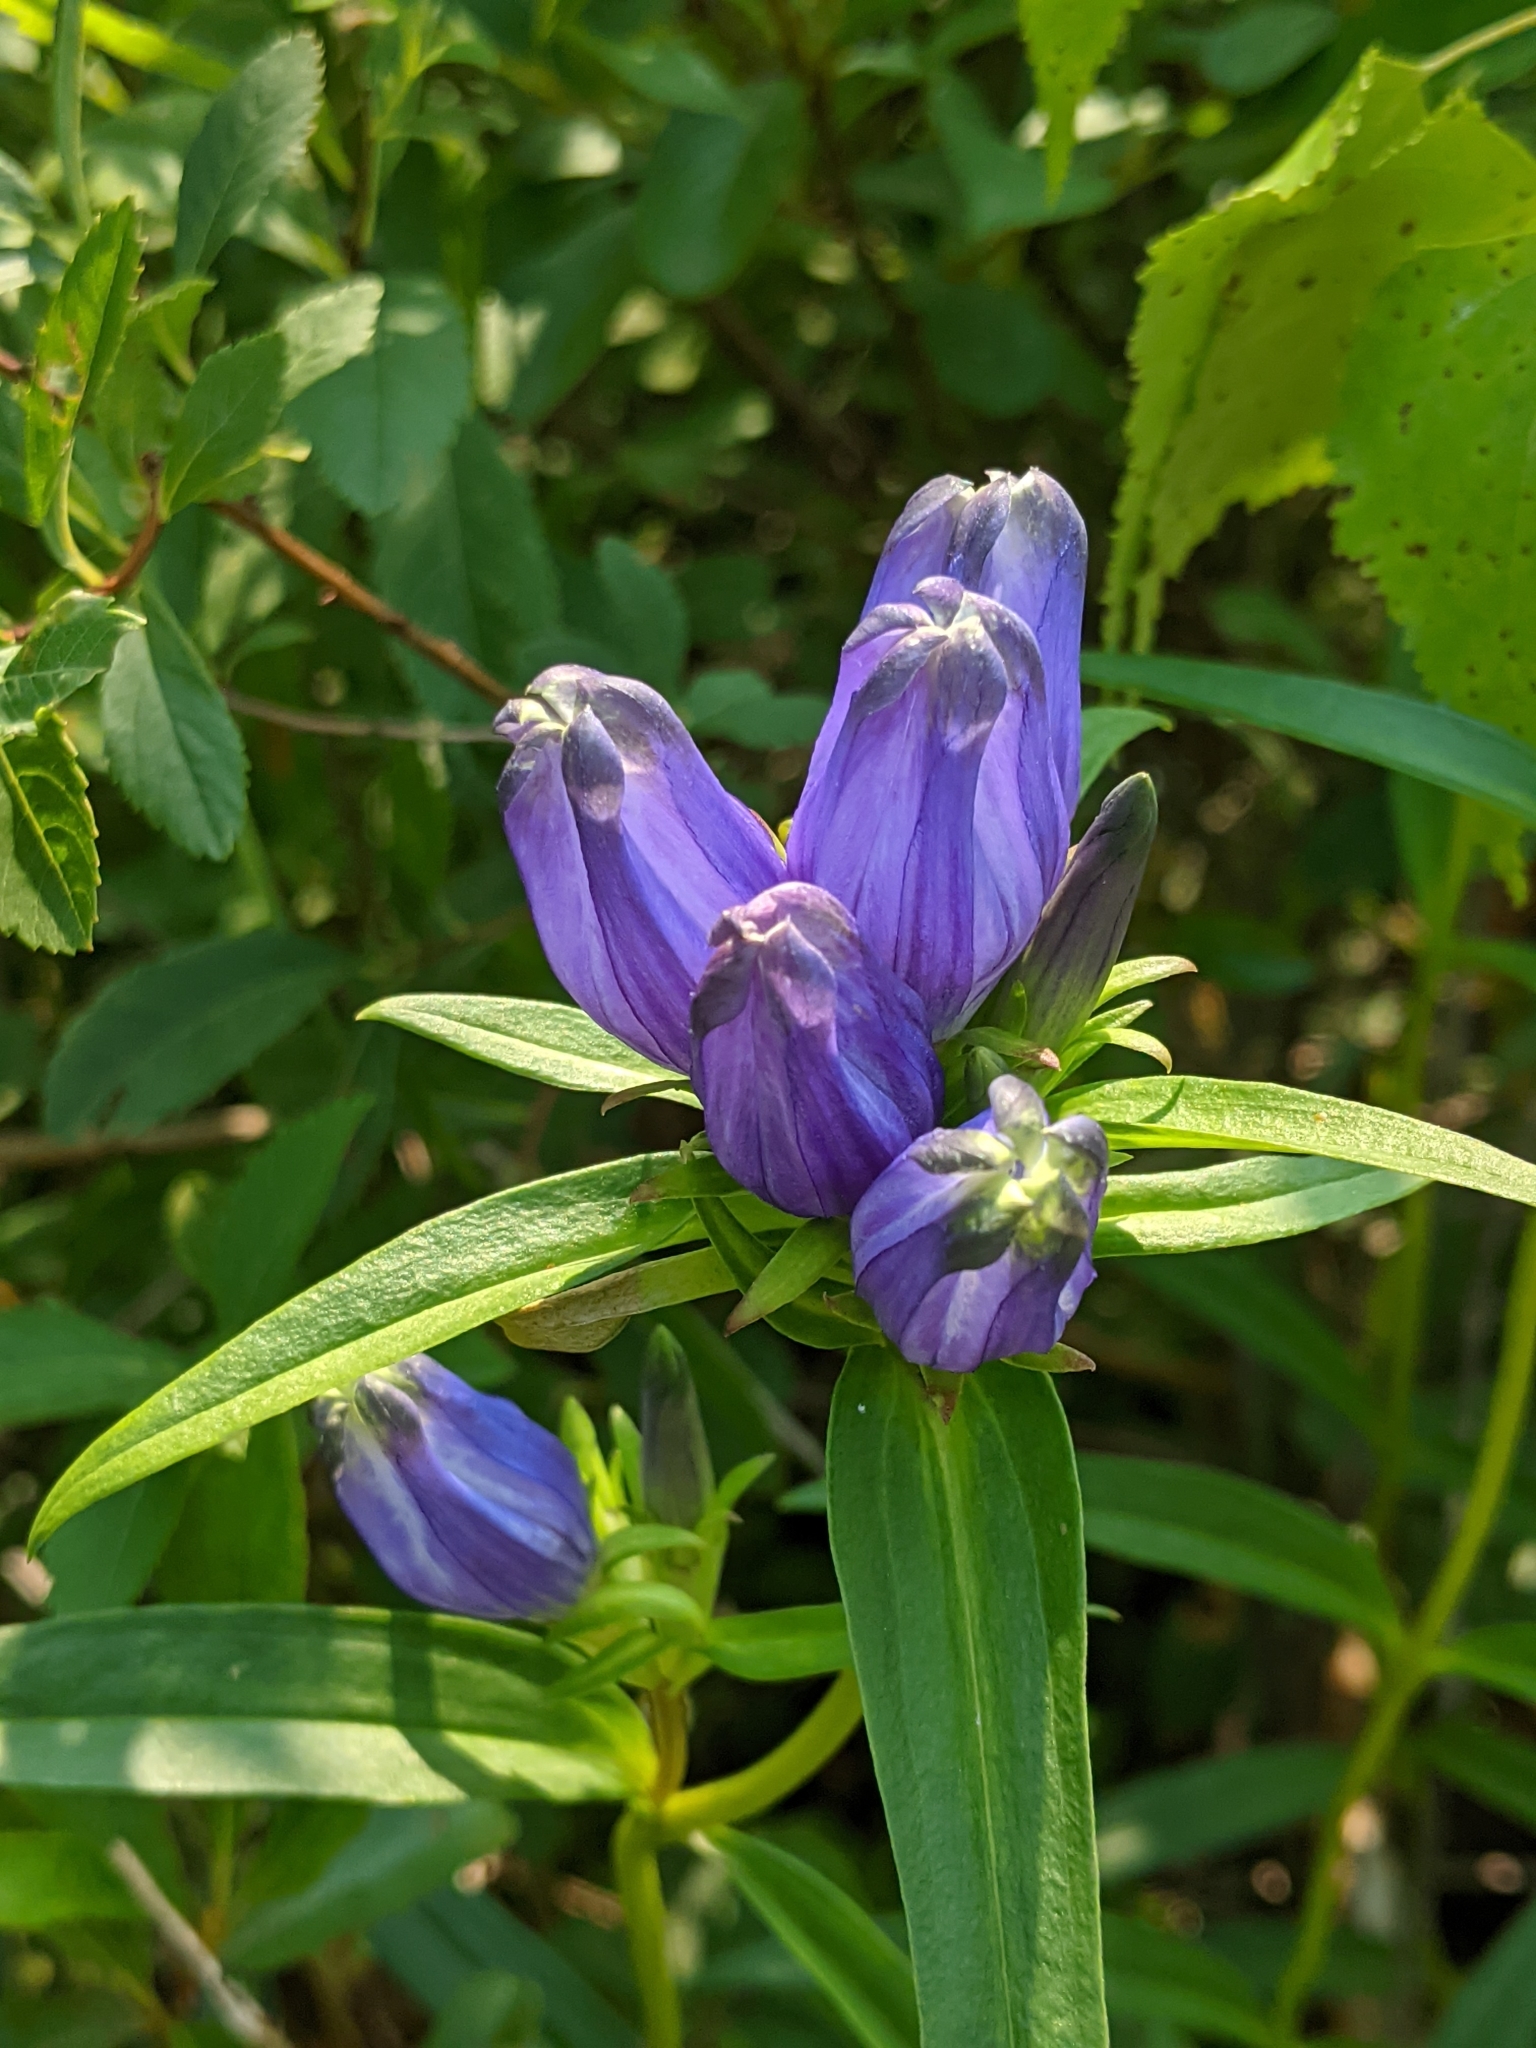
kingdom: Plantae
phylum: Tracheophyta
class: Magnoliopsida
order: Gentianales
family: Gentianaceae
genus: Gentiana
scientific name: Gentiana linearis
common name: Bastard gentian
